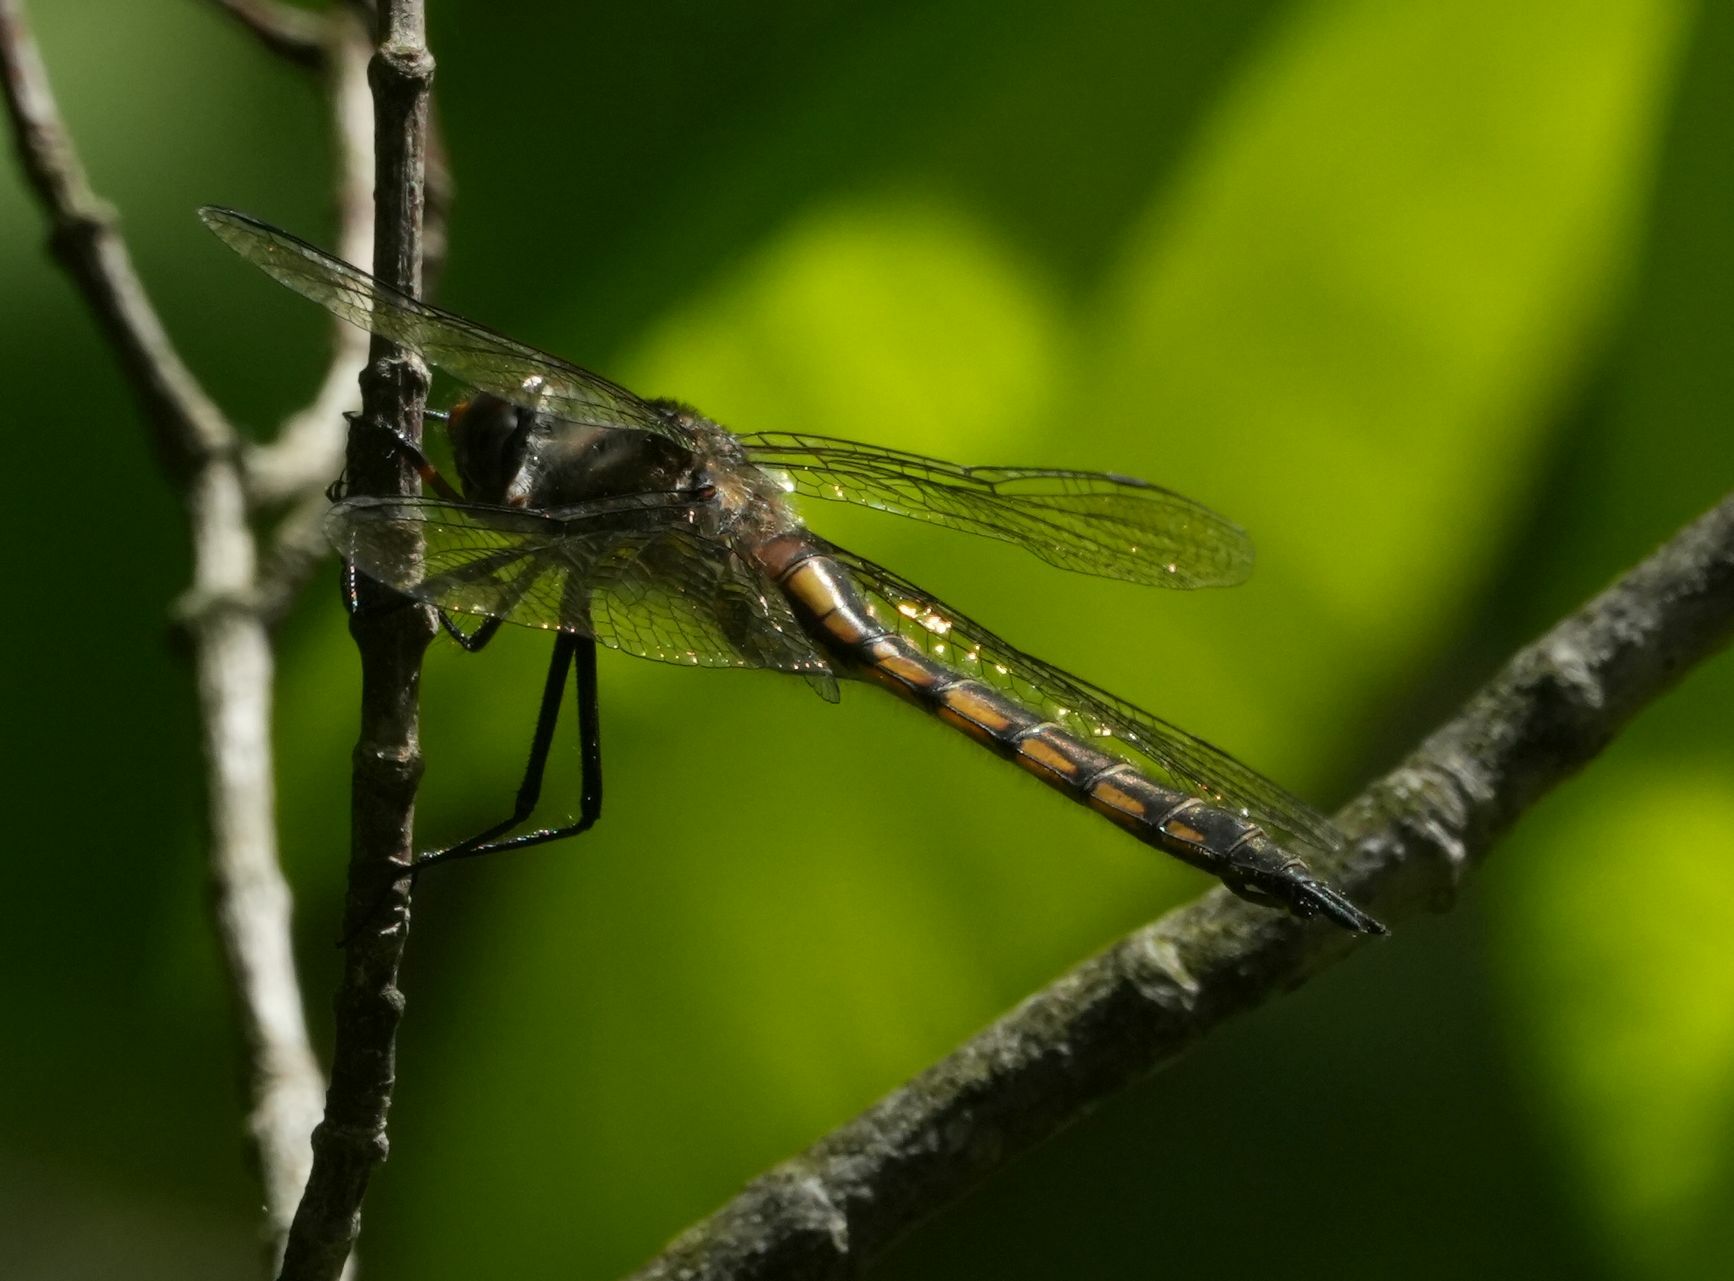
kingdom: Animalia
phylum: Arthropoda
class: Insecta
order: Odonata
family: Corduliidae
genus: Epitheca
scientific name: Epitheca spinigera
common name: Spiny baskettail
